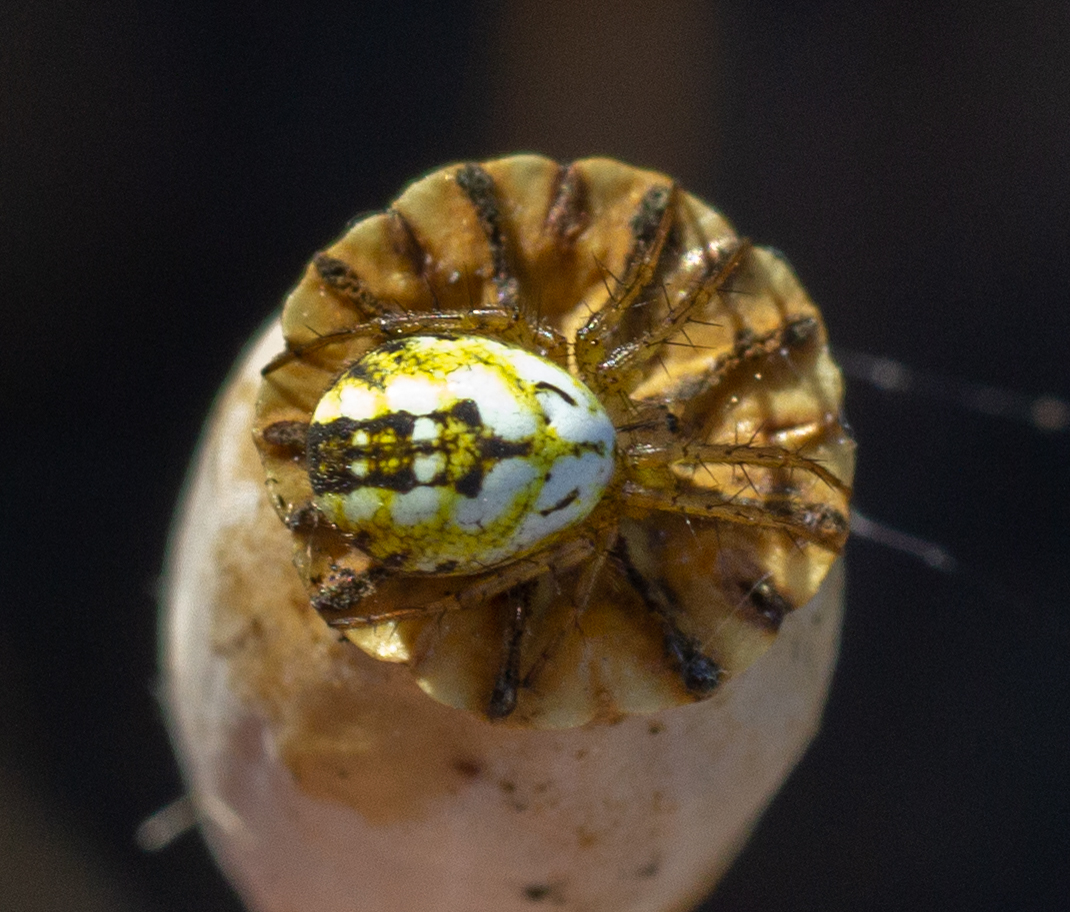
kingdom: Animalia
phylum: Arthropoda
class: Arachnida
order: Araneae
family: Araneidae
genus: Mangora
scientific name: Mangora acalypha
